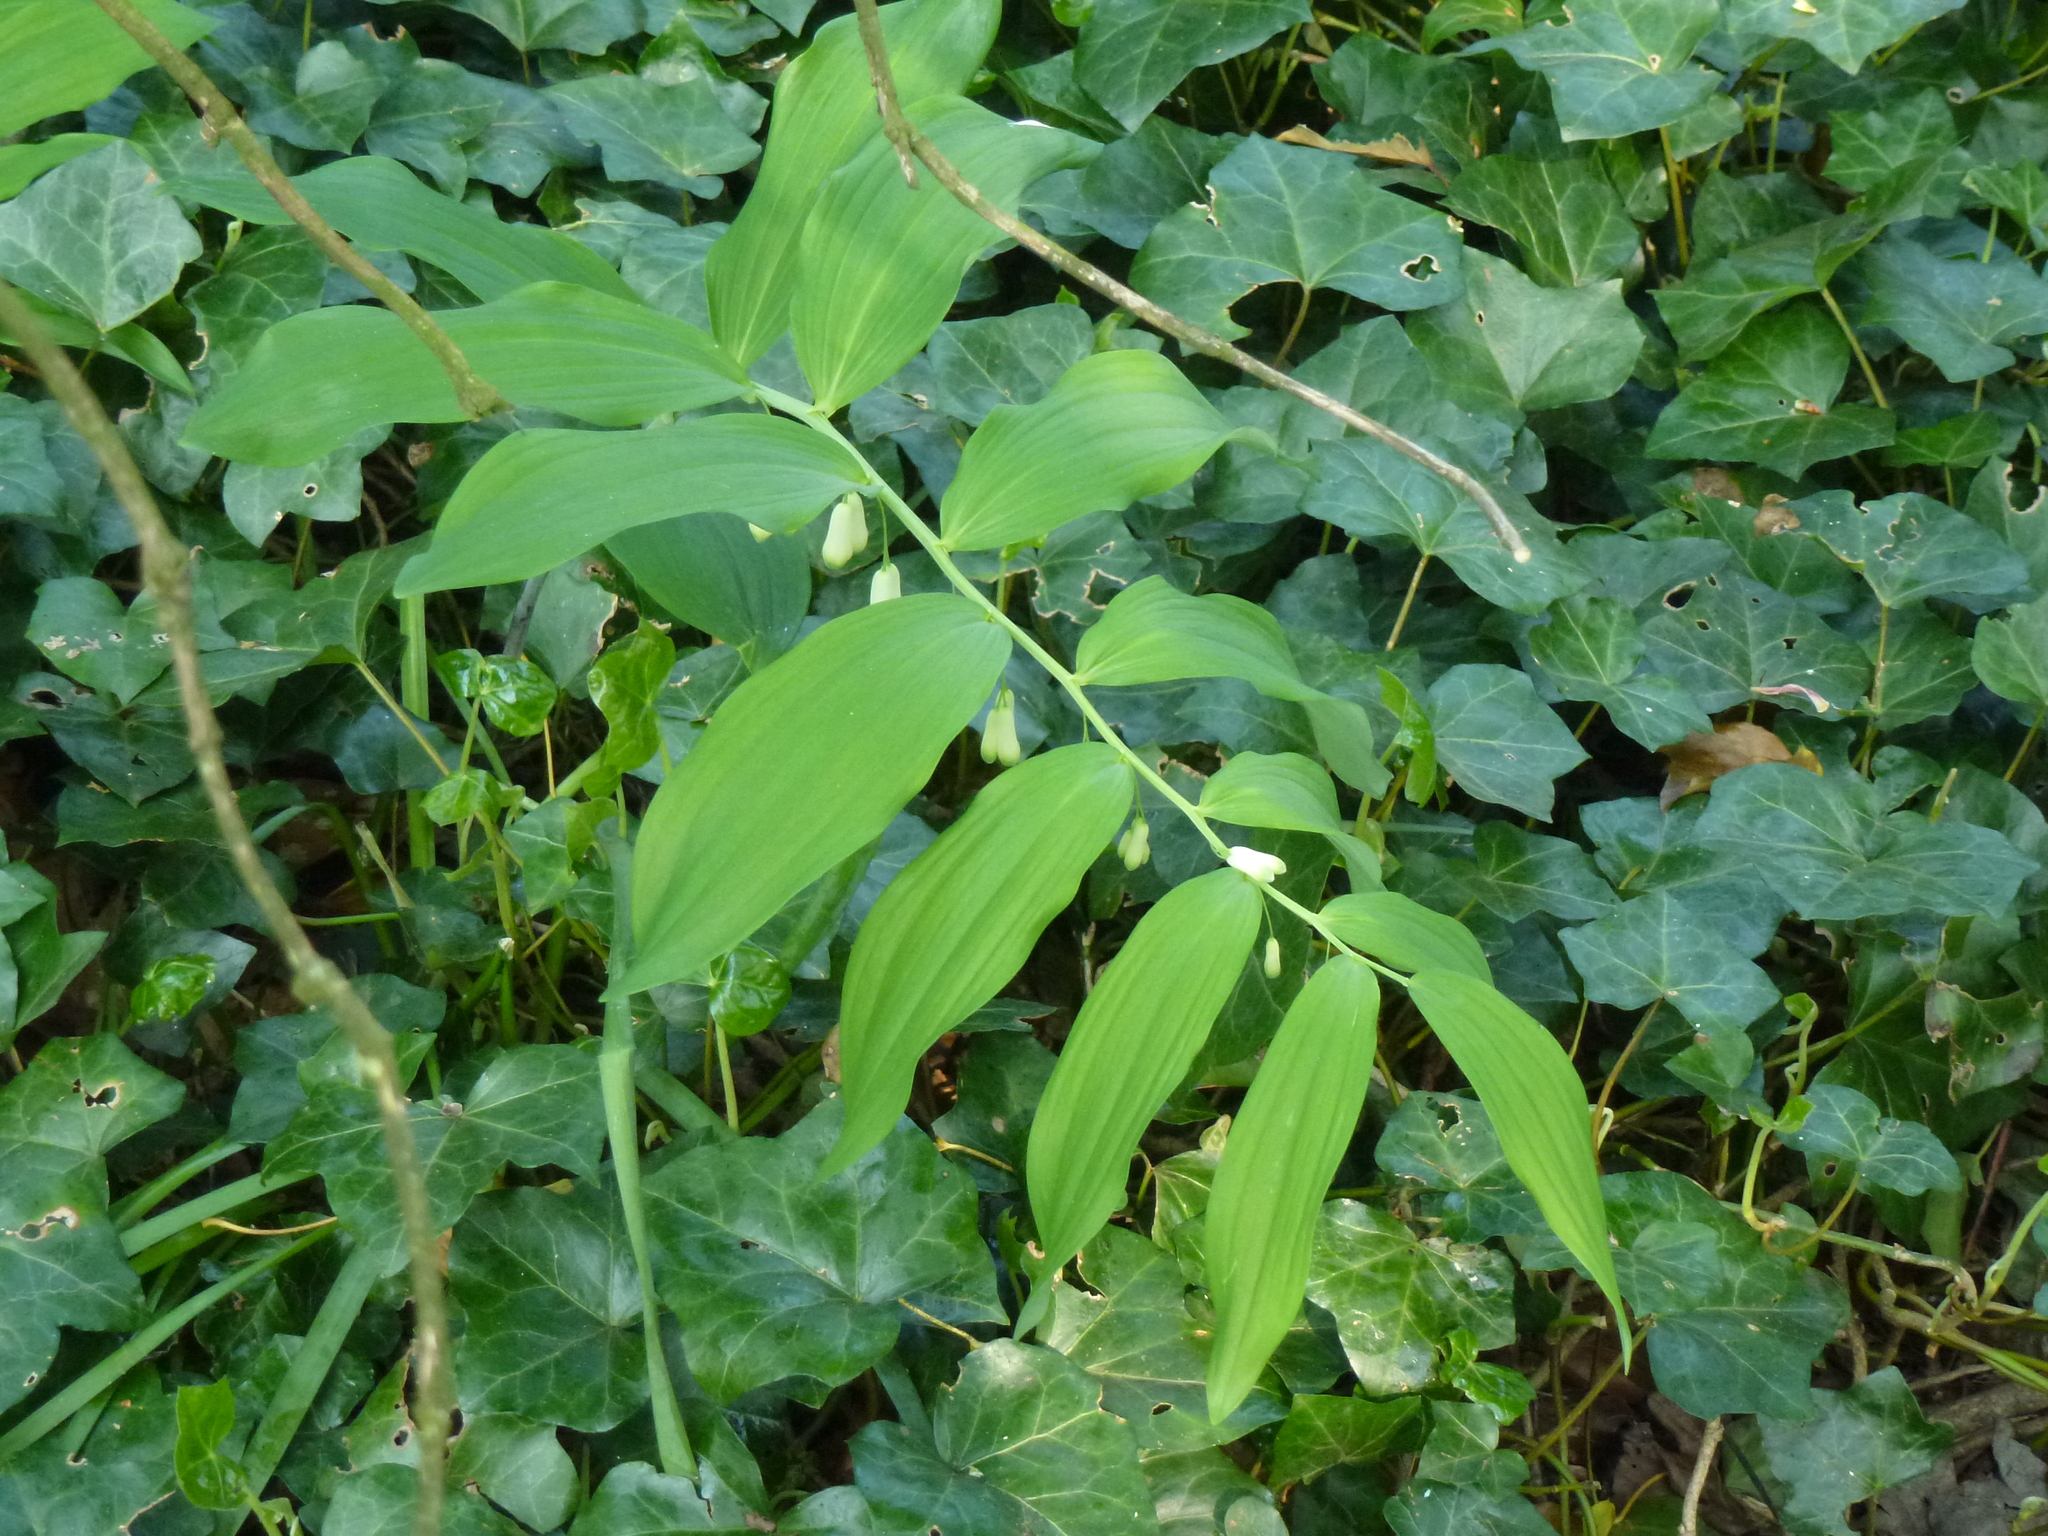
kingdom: Plantae
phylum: Tracheophyta
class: Liliopsida
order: Asparagales
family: Asparagaceae
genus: Polygonatum
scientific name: Polygonatum hybridum
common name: Garden solomon's-seal
